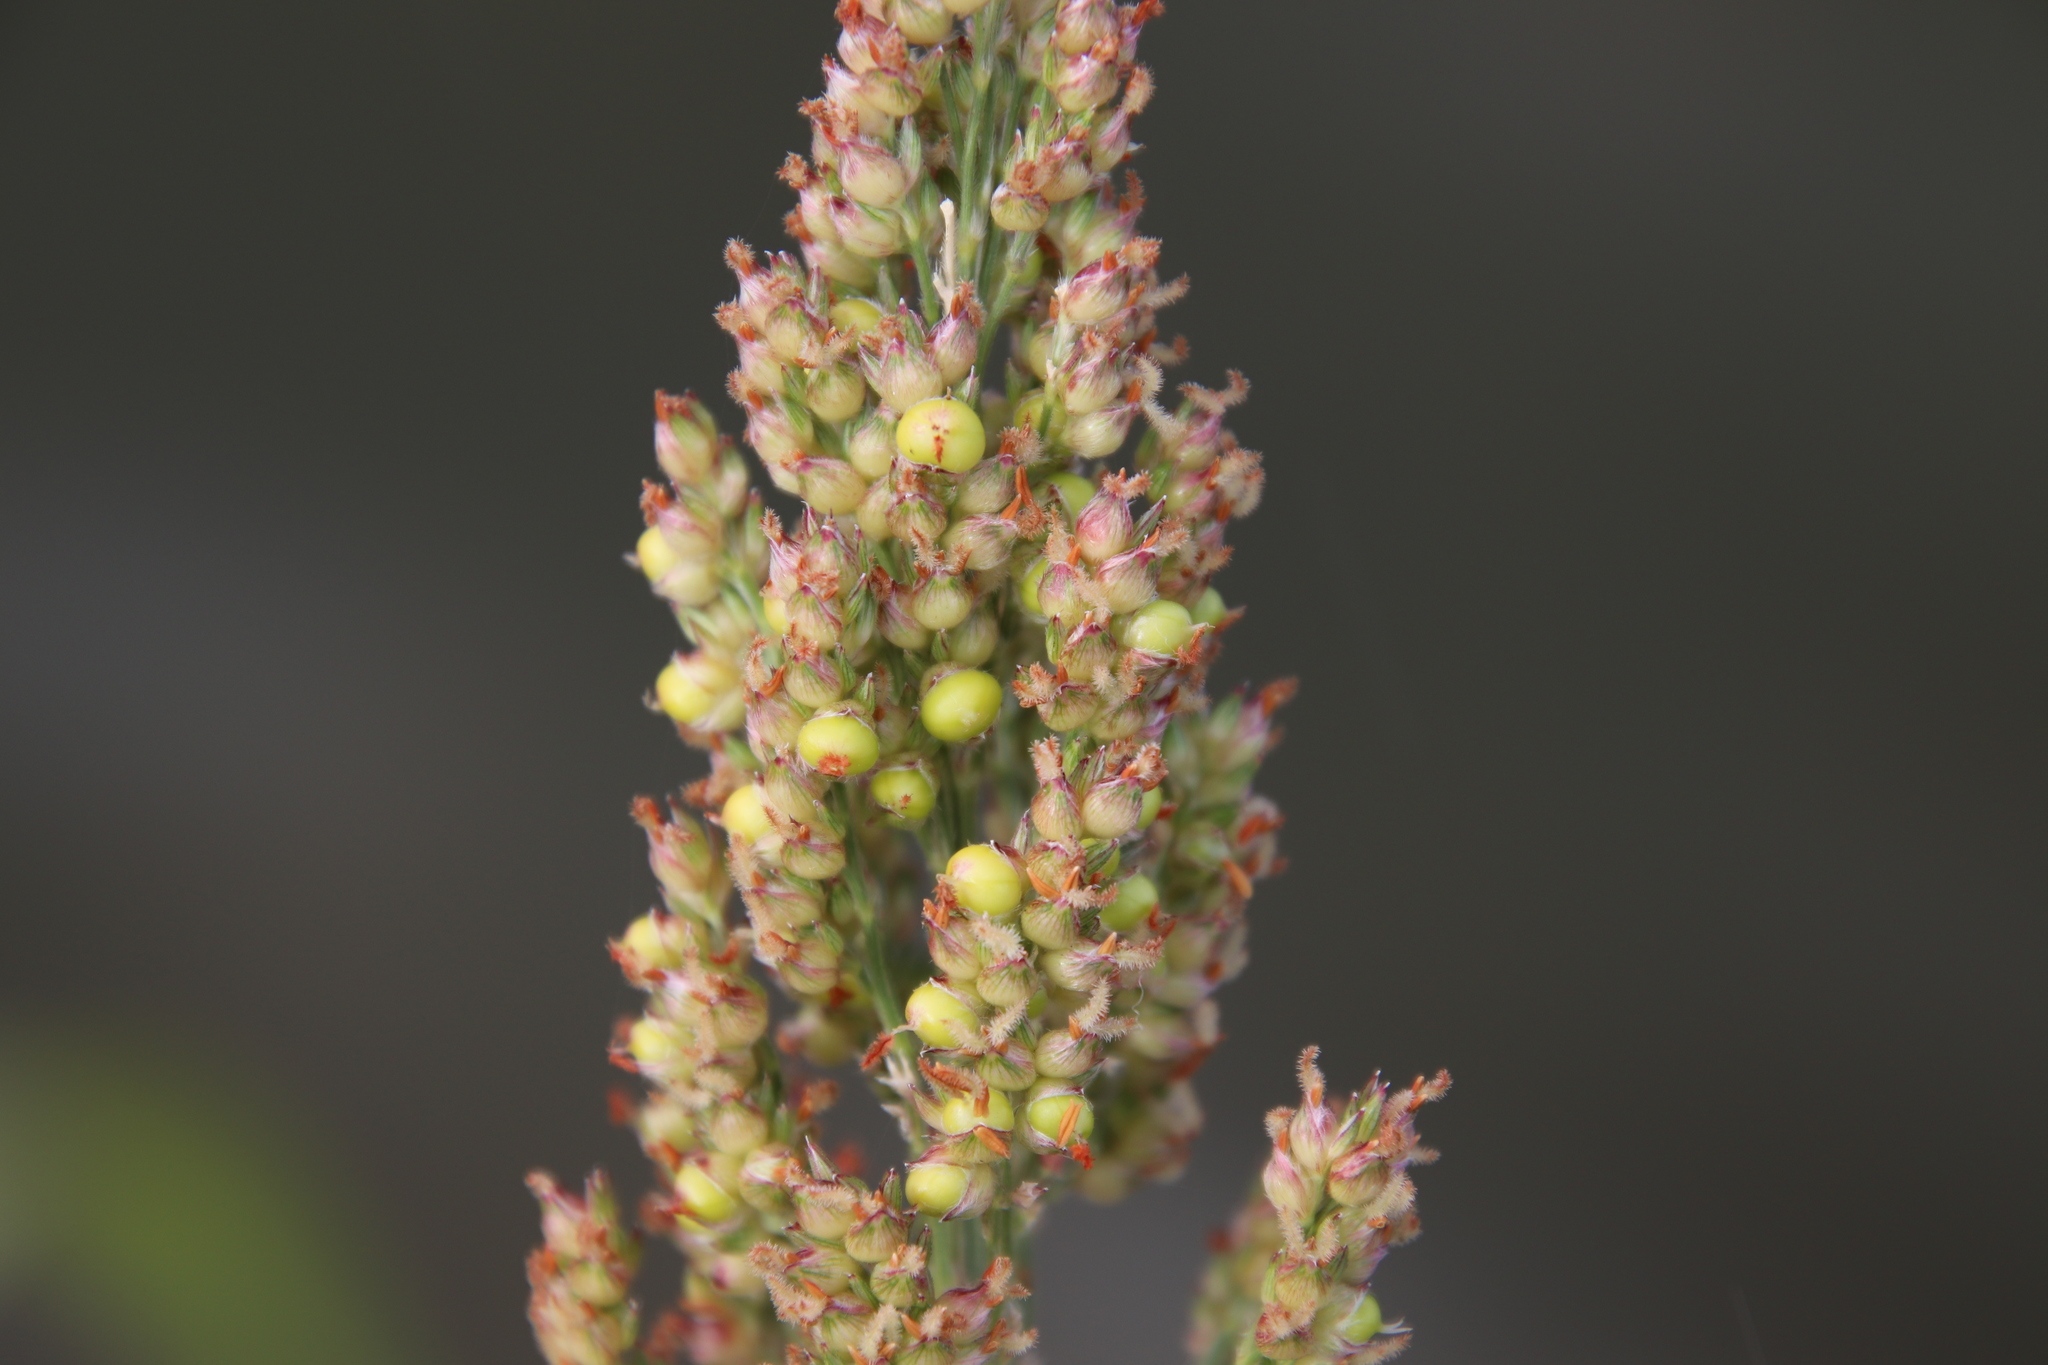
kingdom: Plantae
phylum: Tracheophyta
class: Liliopsida
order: Poales
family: Poaceae
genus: Sorghum
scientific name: Sorghum bicolor
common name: Sorghum
